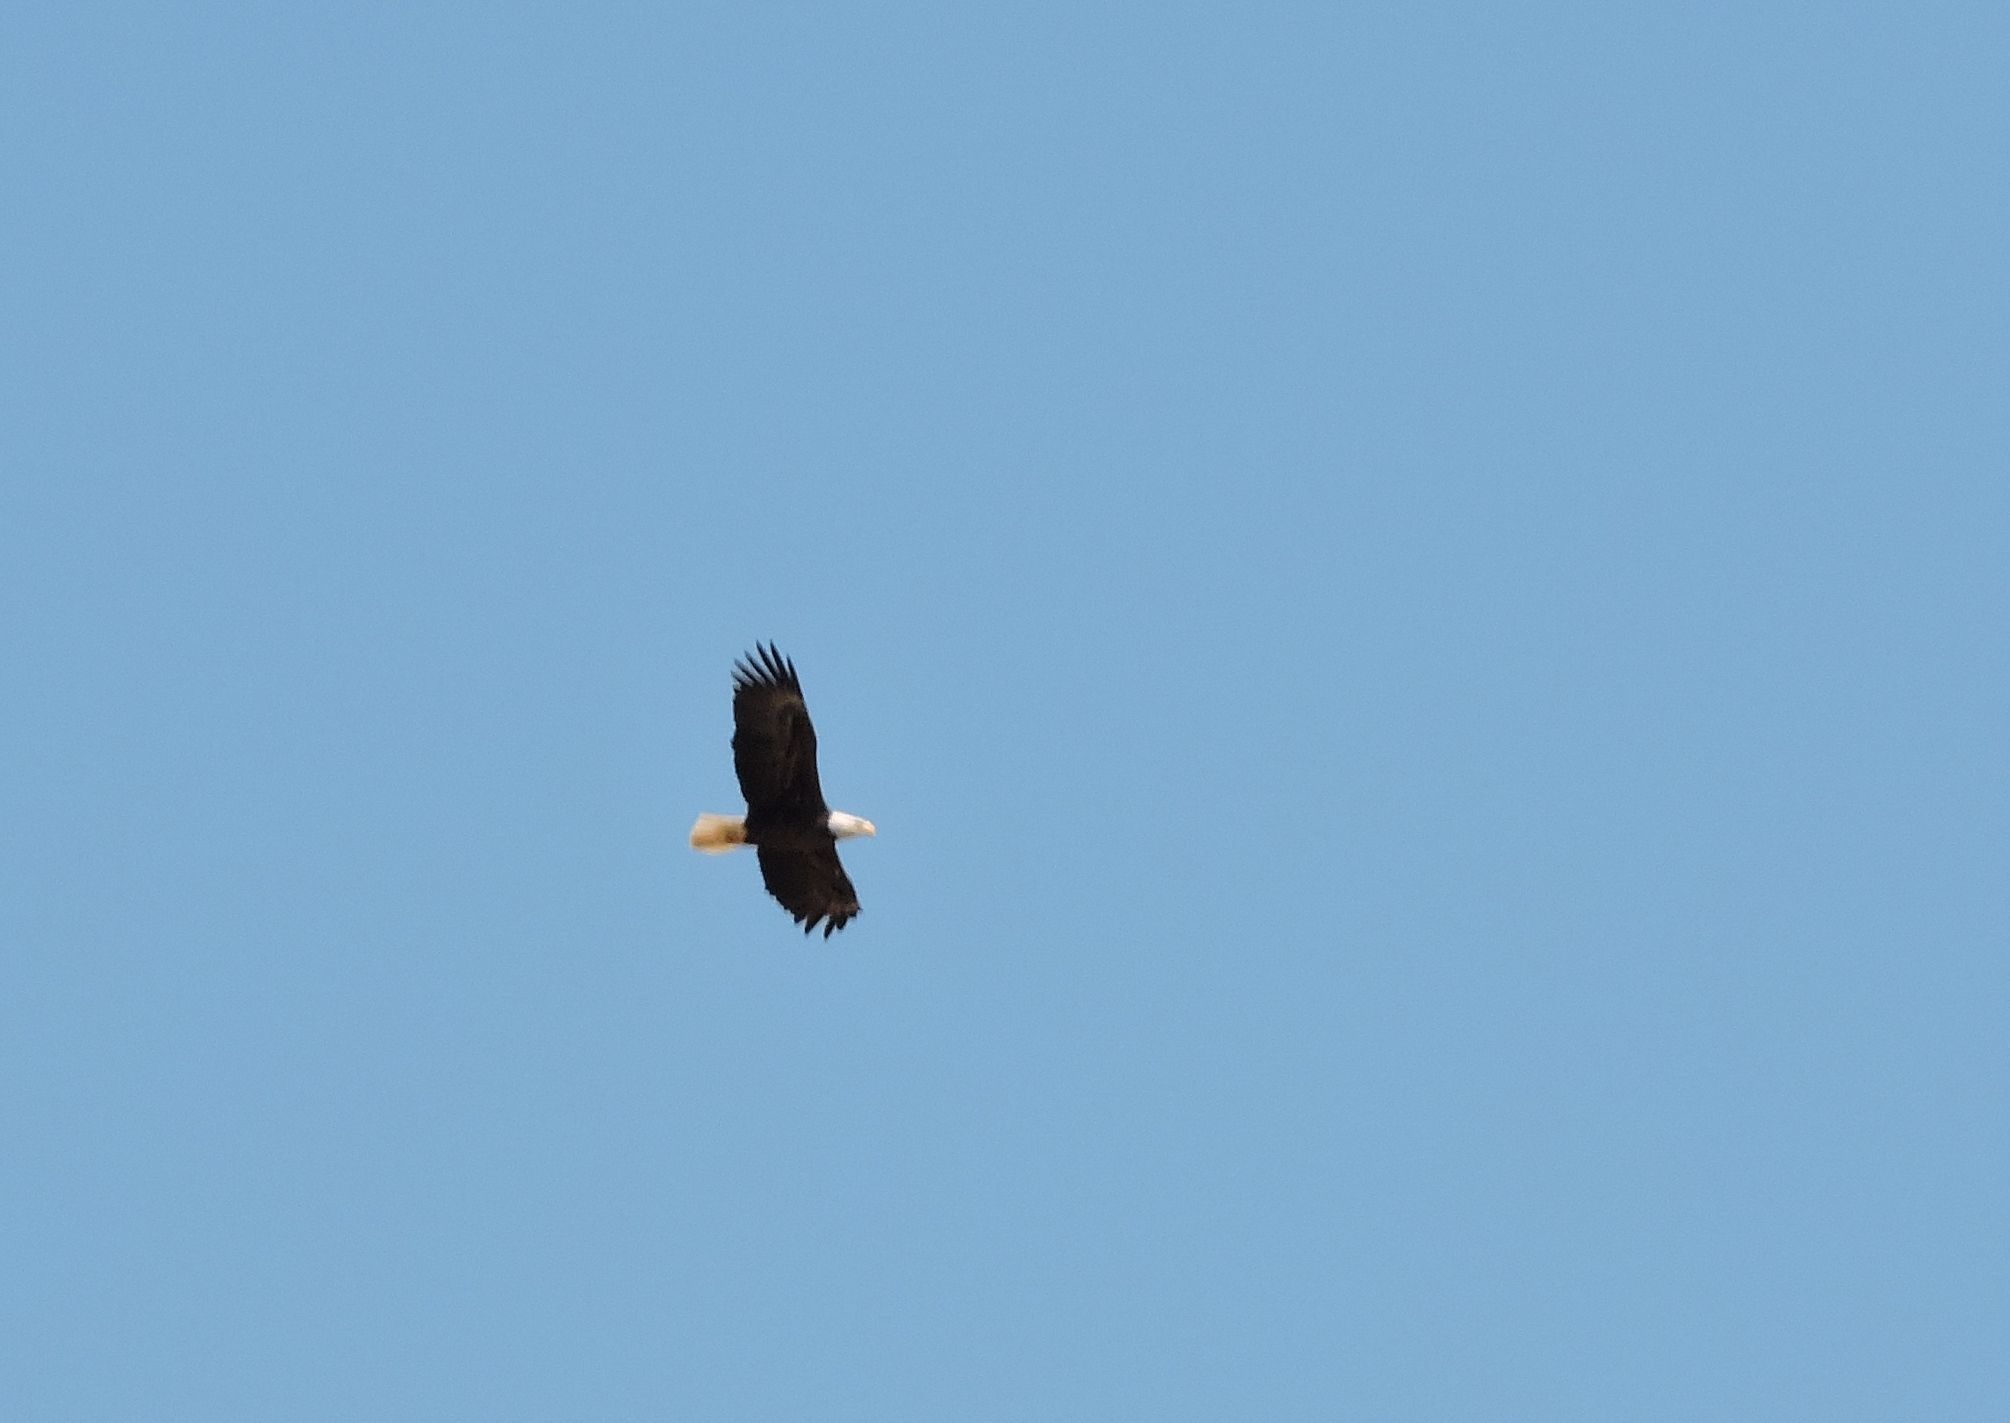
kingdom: Animalia
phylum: Chordata
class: Aves
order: Accipitriformes
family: Accipitridae
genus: Haliaeetus
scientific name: Haliaeetus leucocephalus
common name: Bald eagle
